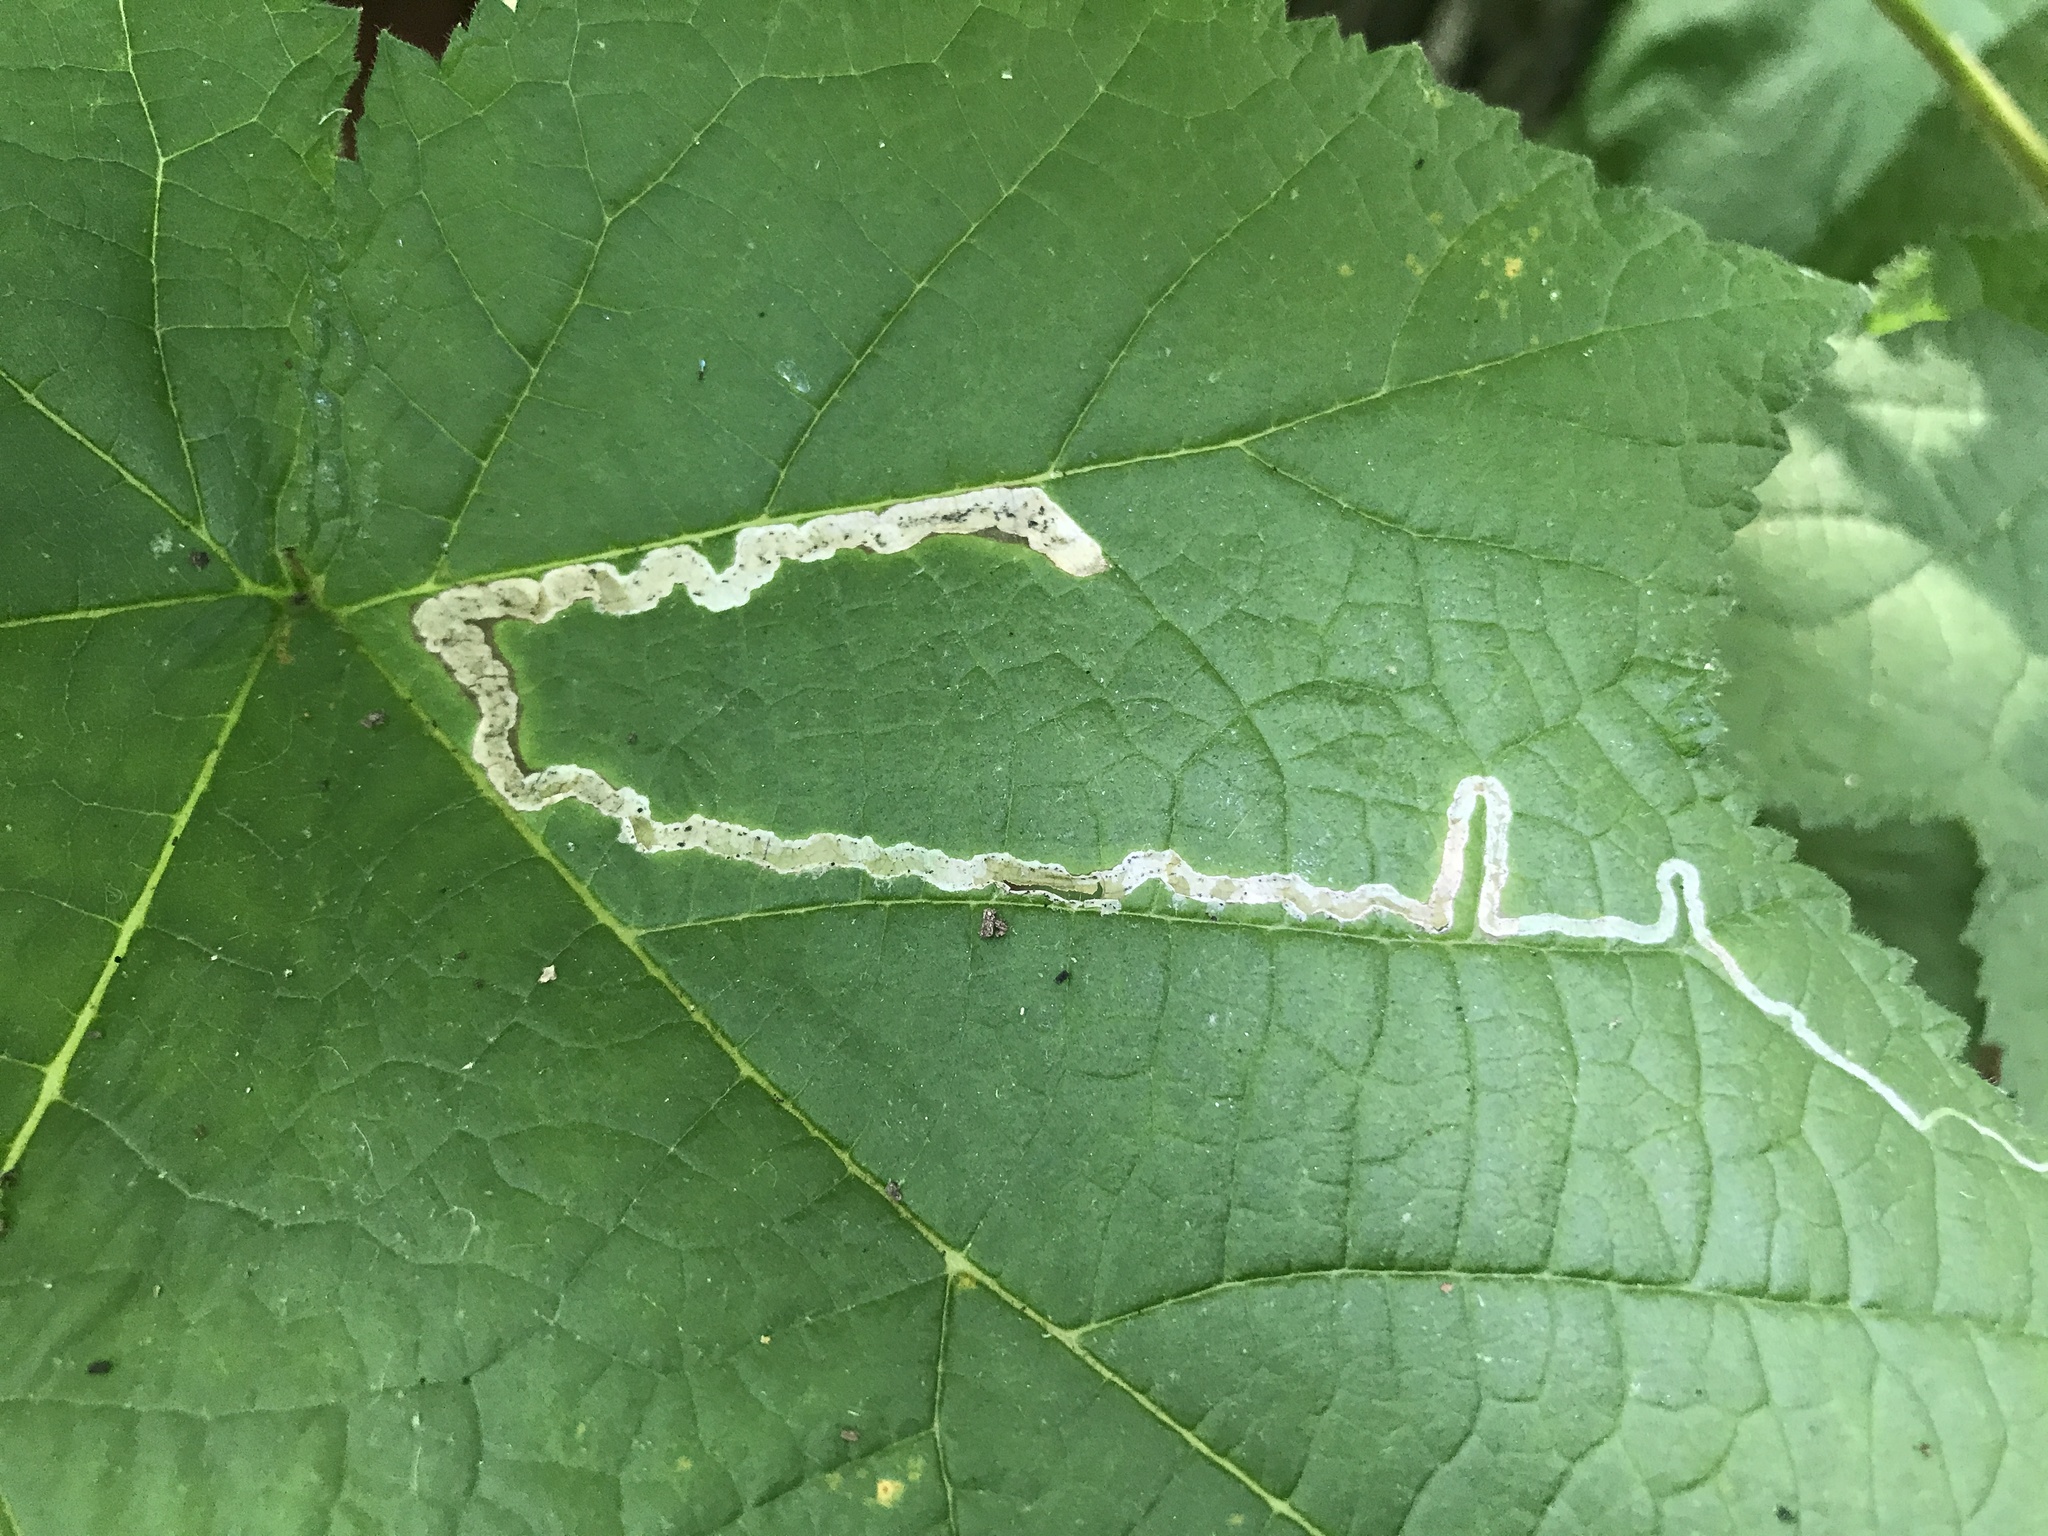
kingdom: Animalia
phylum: Arthropoda
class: Insecta
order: Diptera
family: Agromyzidae
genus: Agromyza
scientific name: Agromyza vockerothi
